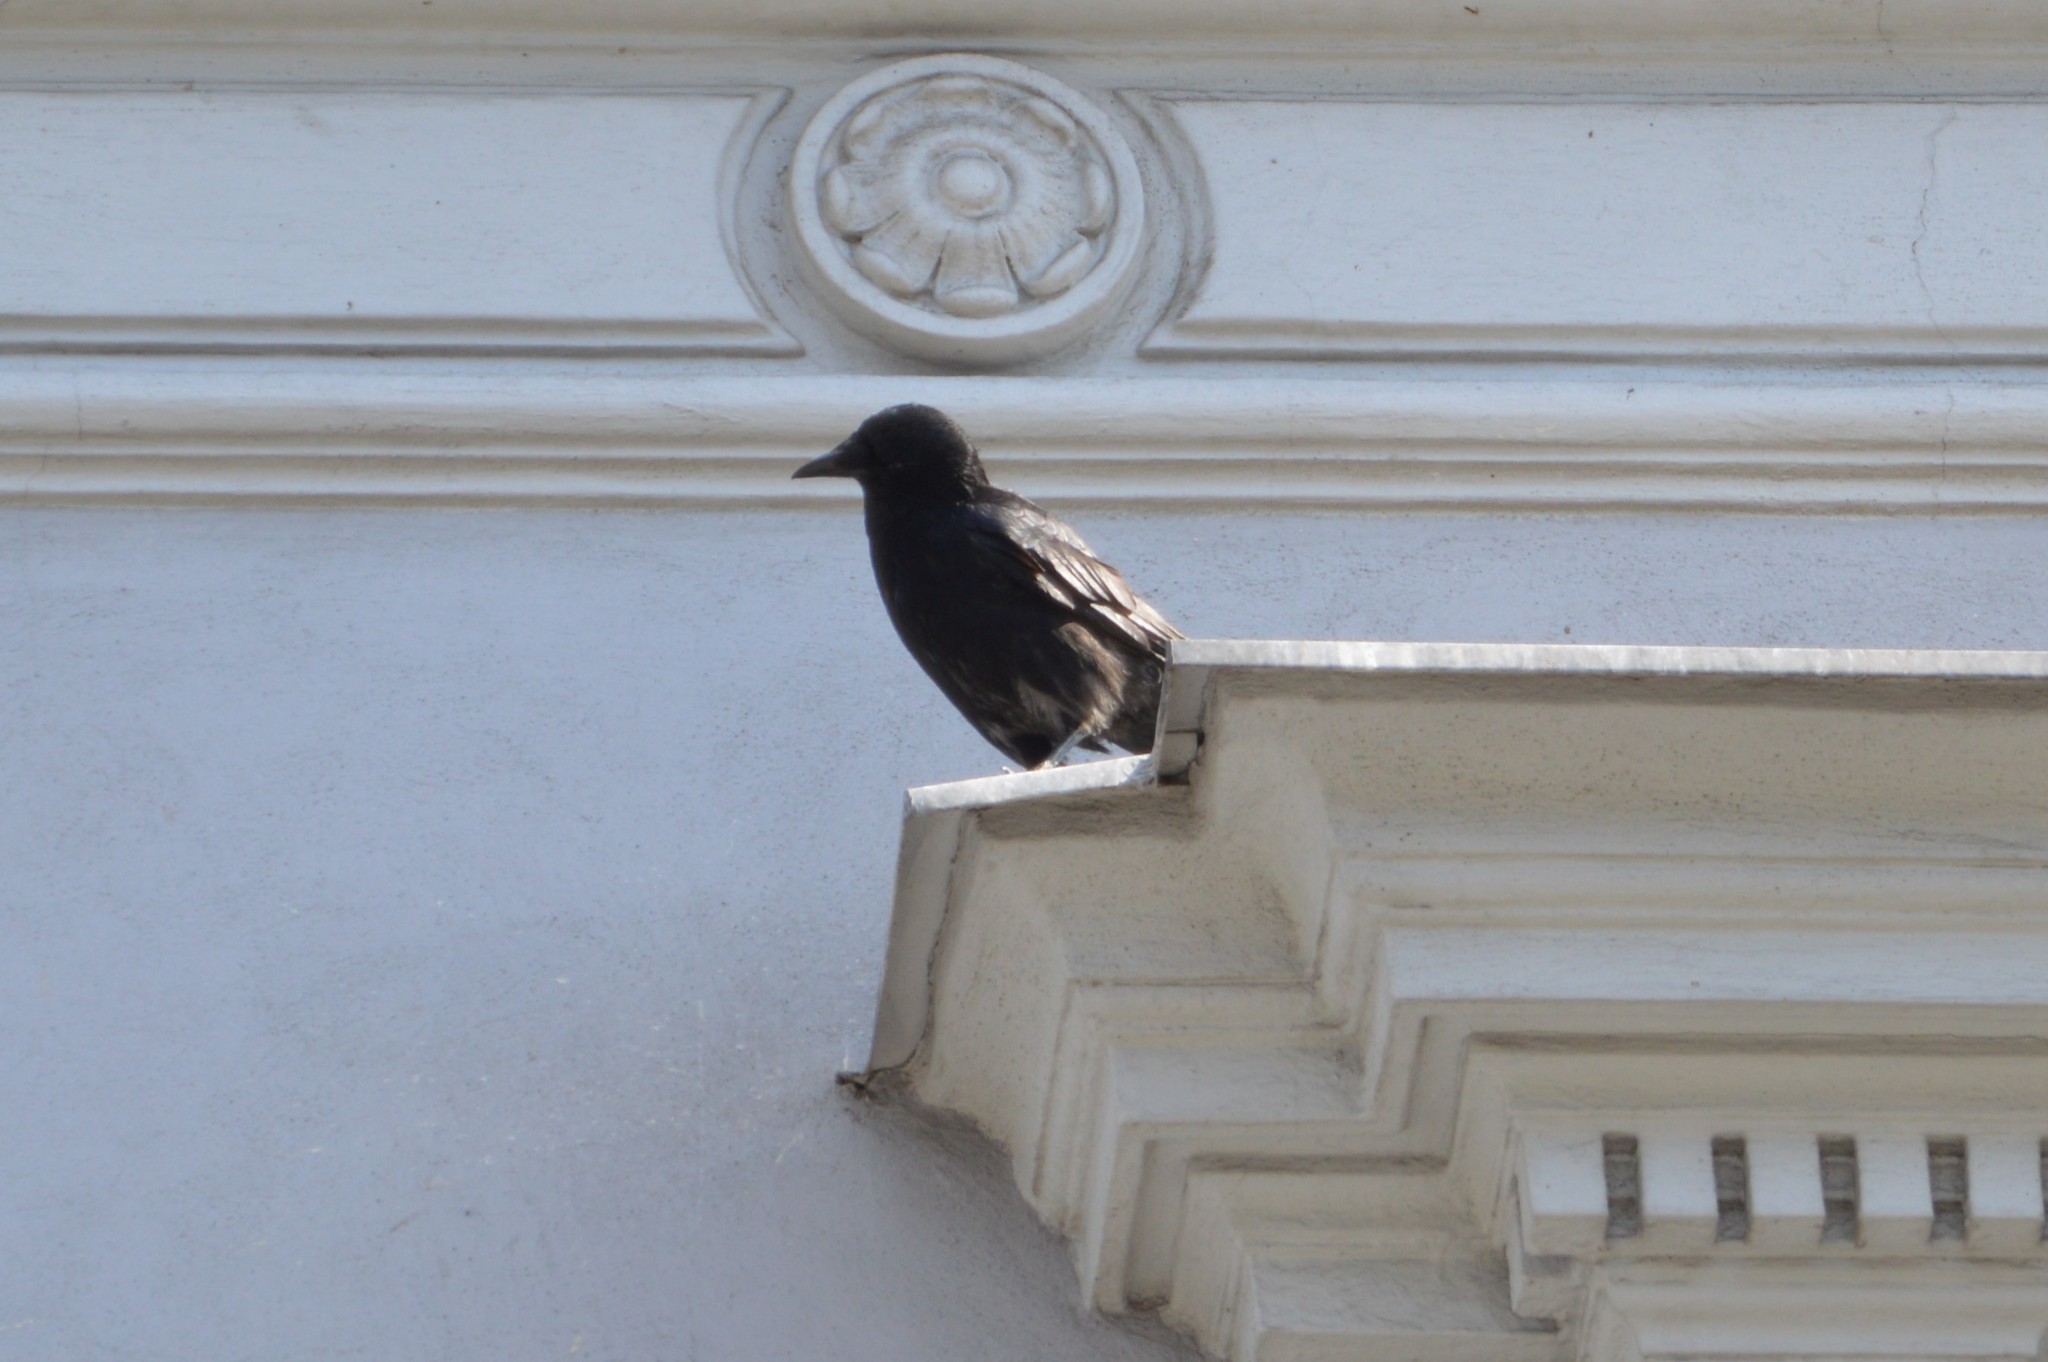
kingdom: Animalia
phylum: Chordata
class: Aves
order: Passeriformes
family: Corvidae
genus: Corvus
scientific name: Corvus
